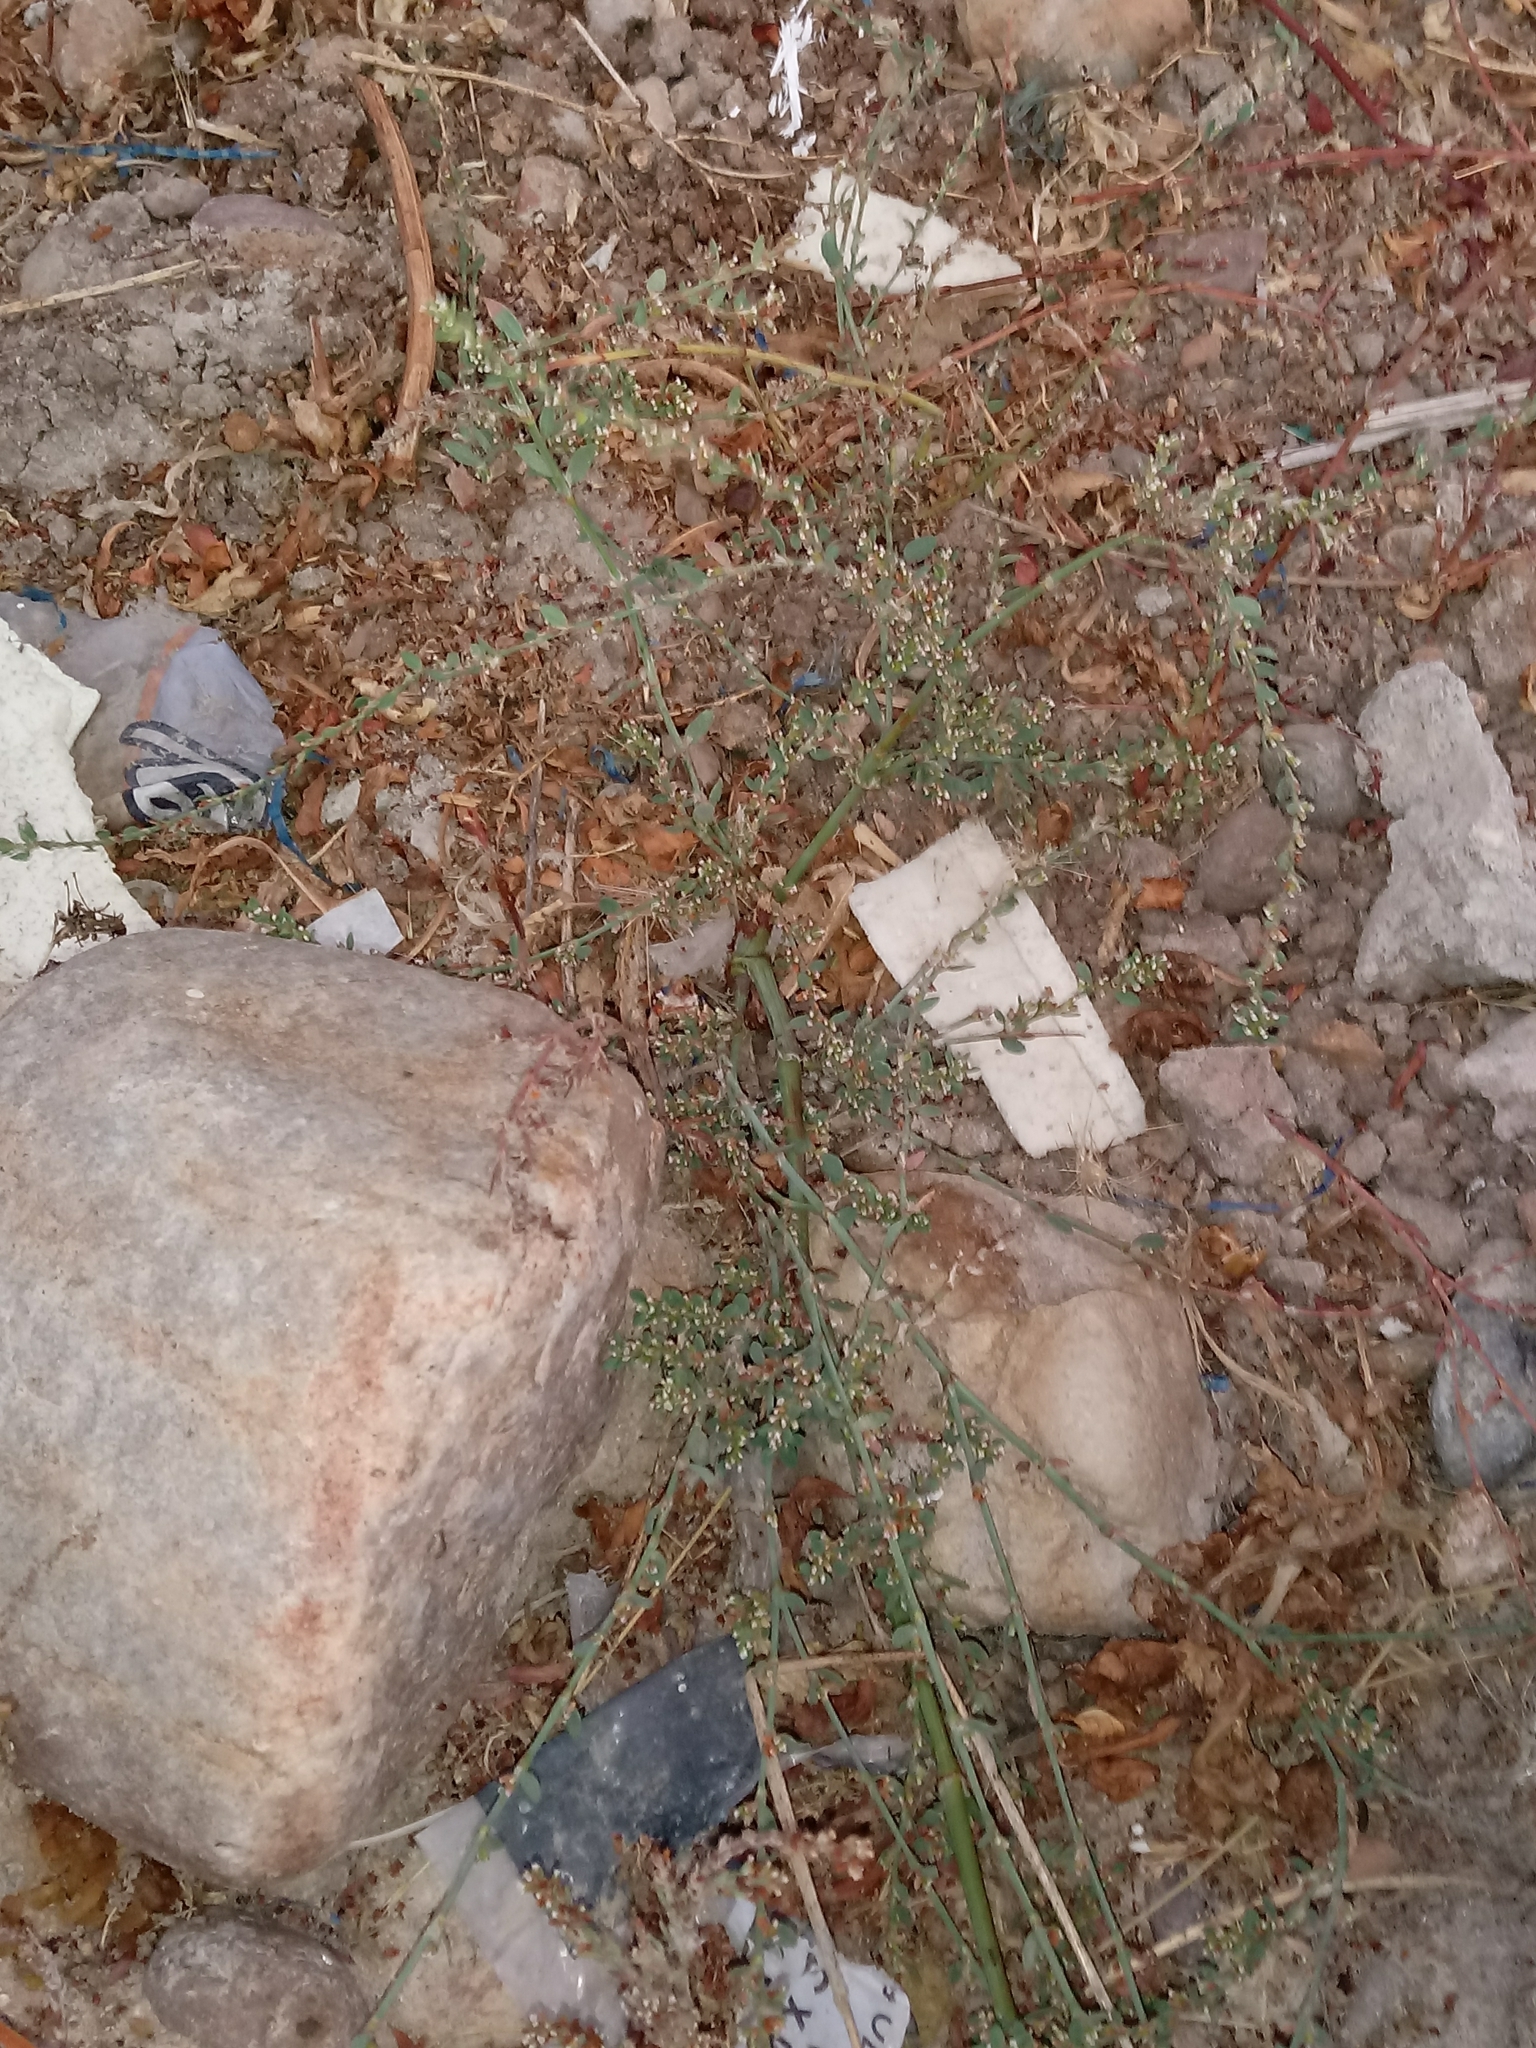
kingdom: Plantae
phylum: Tracheophyta
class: Magnoliopsida
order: Caryophyllales
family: Polygonaceae
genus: Polygonum
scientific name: Polygonum aviculare
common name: Prostrate knotweed
